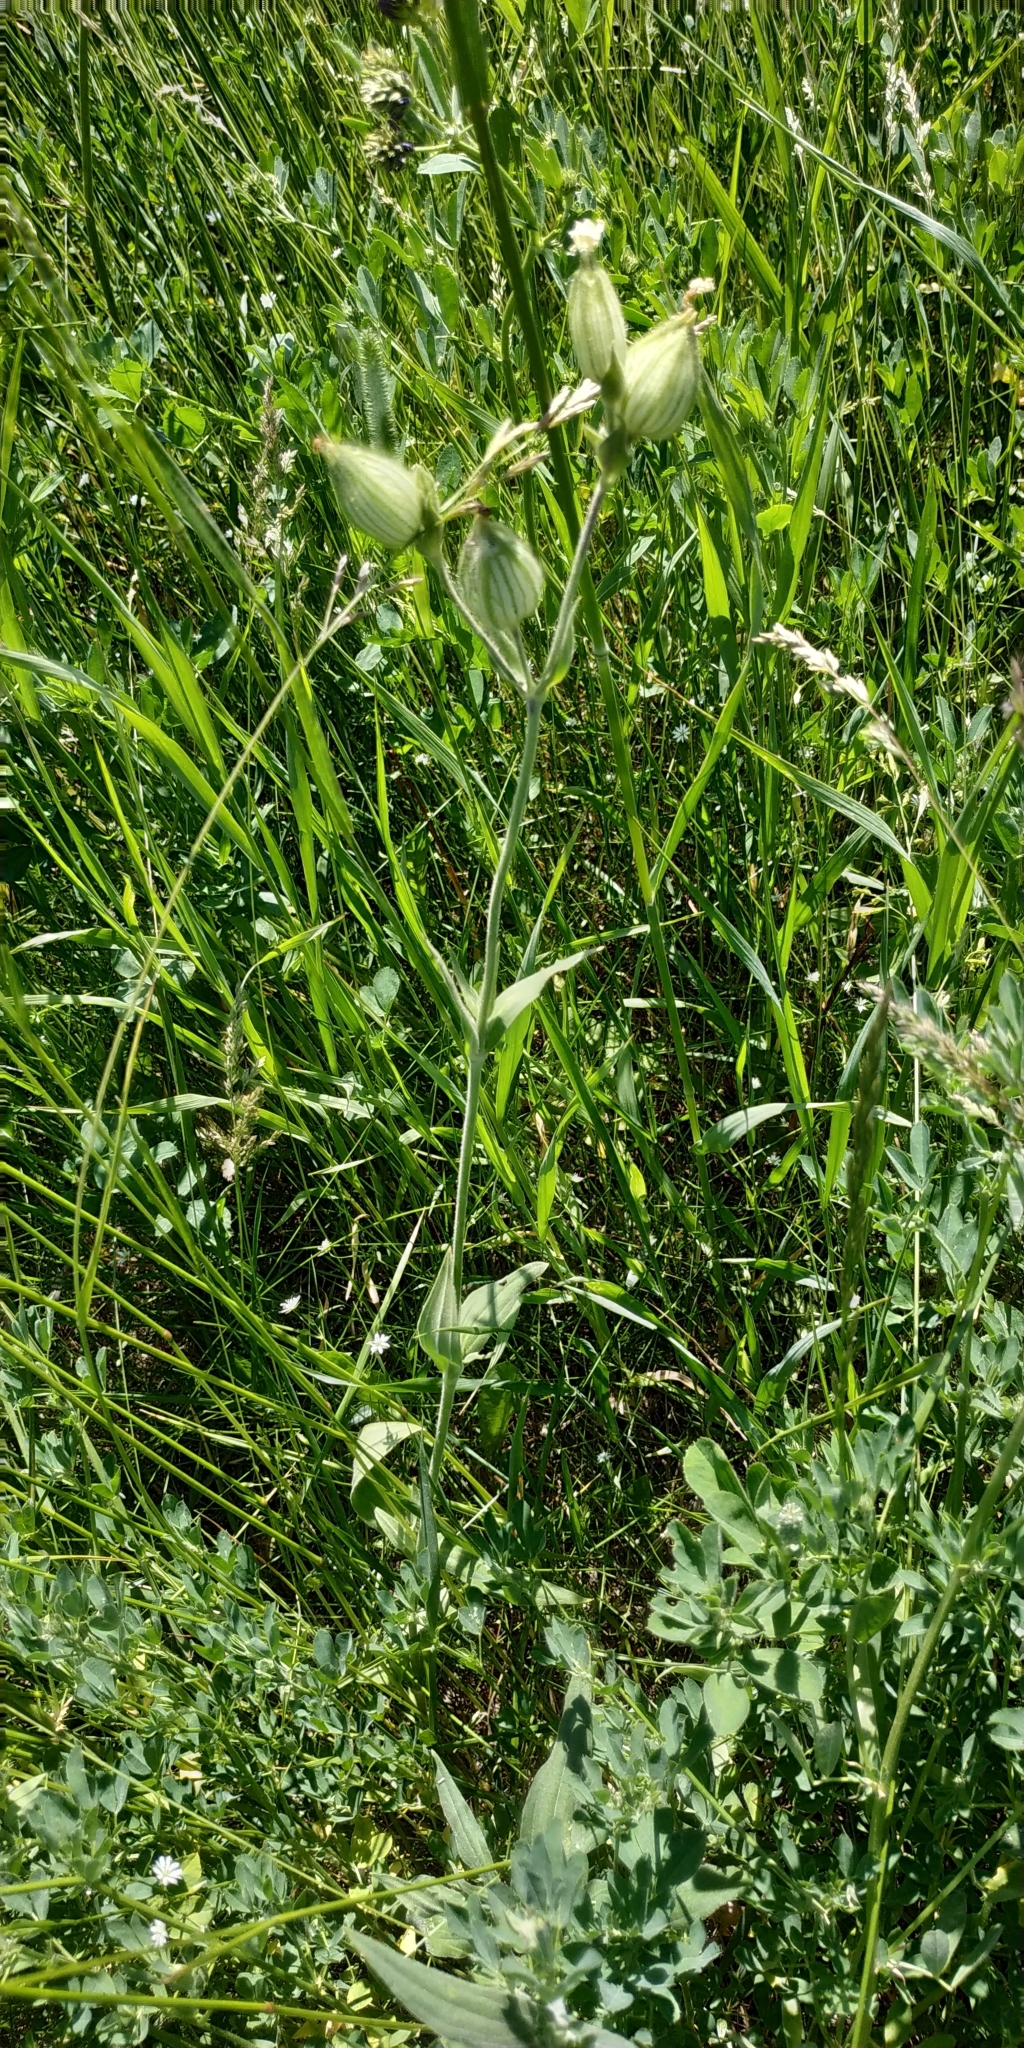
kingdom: Plantae
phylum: Tracheophyta
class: Magnoliopsida
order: Caryophyllales
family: Caryophyllaceae
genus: Silene
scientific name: Silene latifolia
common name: White campion
